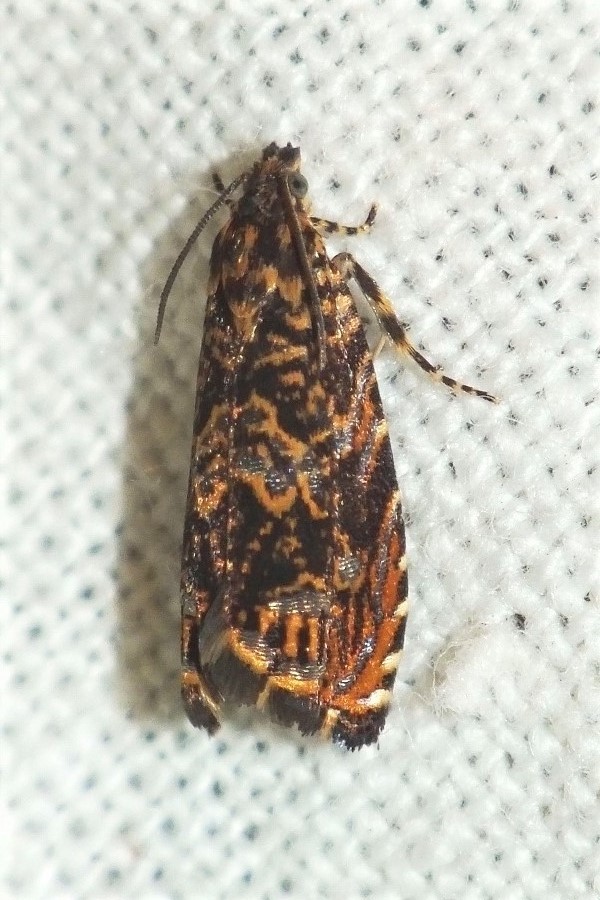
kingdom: Animalia
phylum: Arthropoda
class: Insecta
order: Lepidoptera
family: Tortricidae
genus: Enarmonia
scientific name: Enarmonia formosana
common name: Cherry bark tortrix
